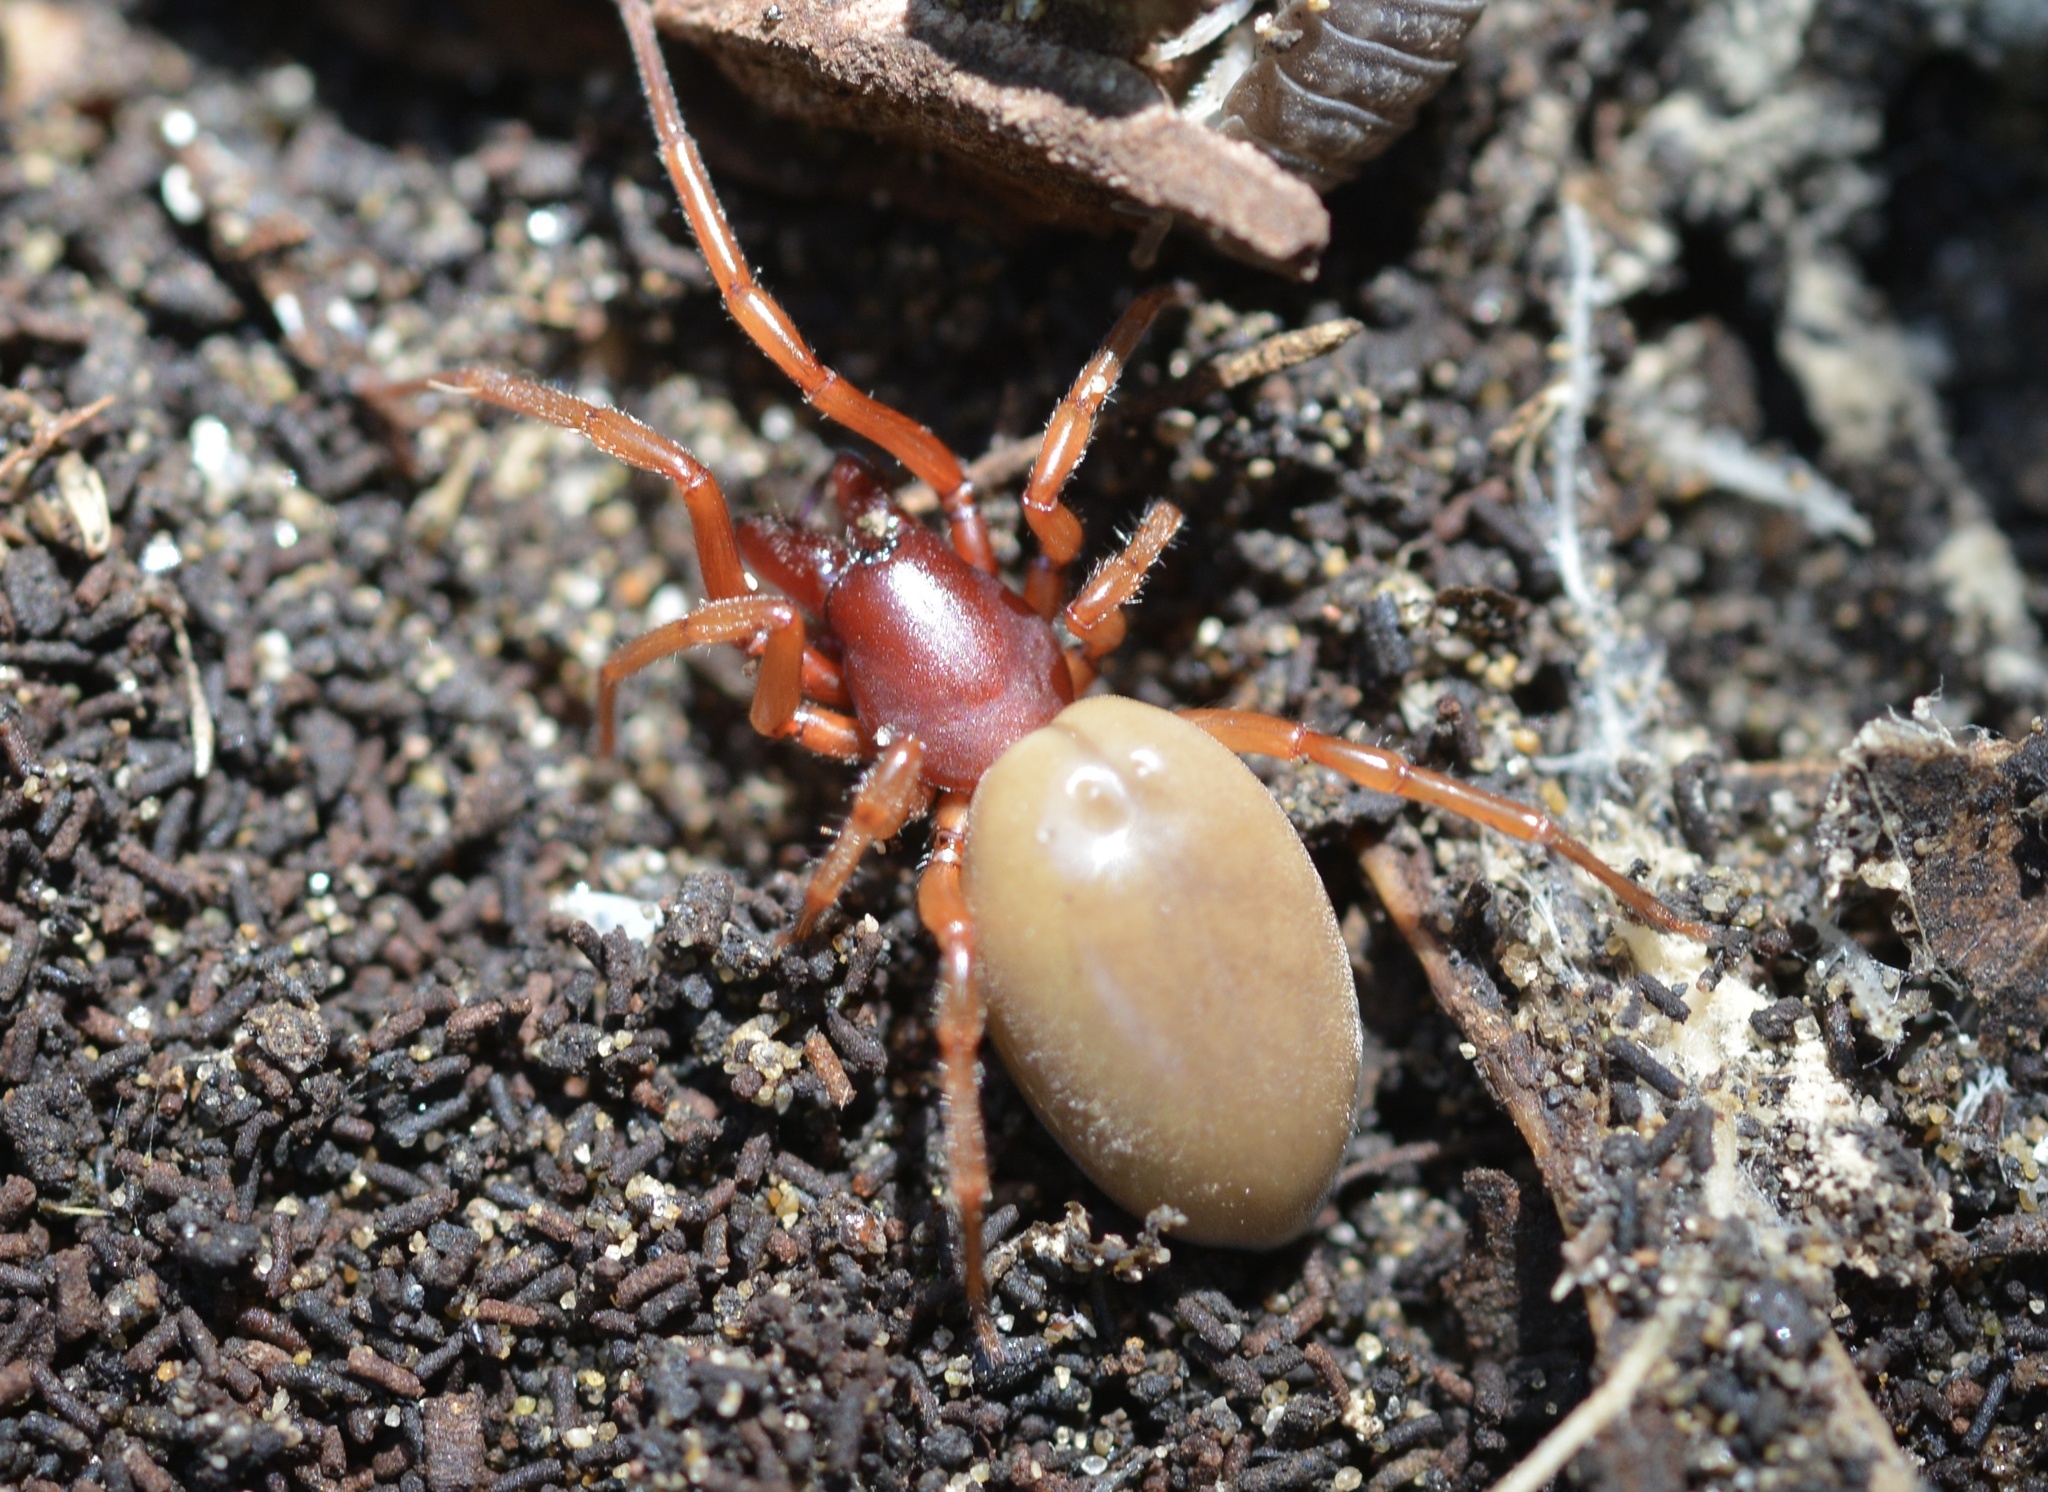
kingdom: Animalia
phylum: Arthropoda
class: Arachnida
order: Araneae
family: Dysderidae
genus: Dysdera
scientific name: Dysdera crocata
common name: Woodlouse spider
